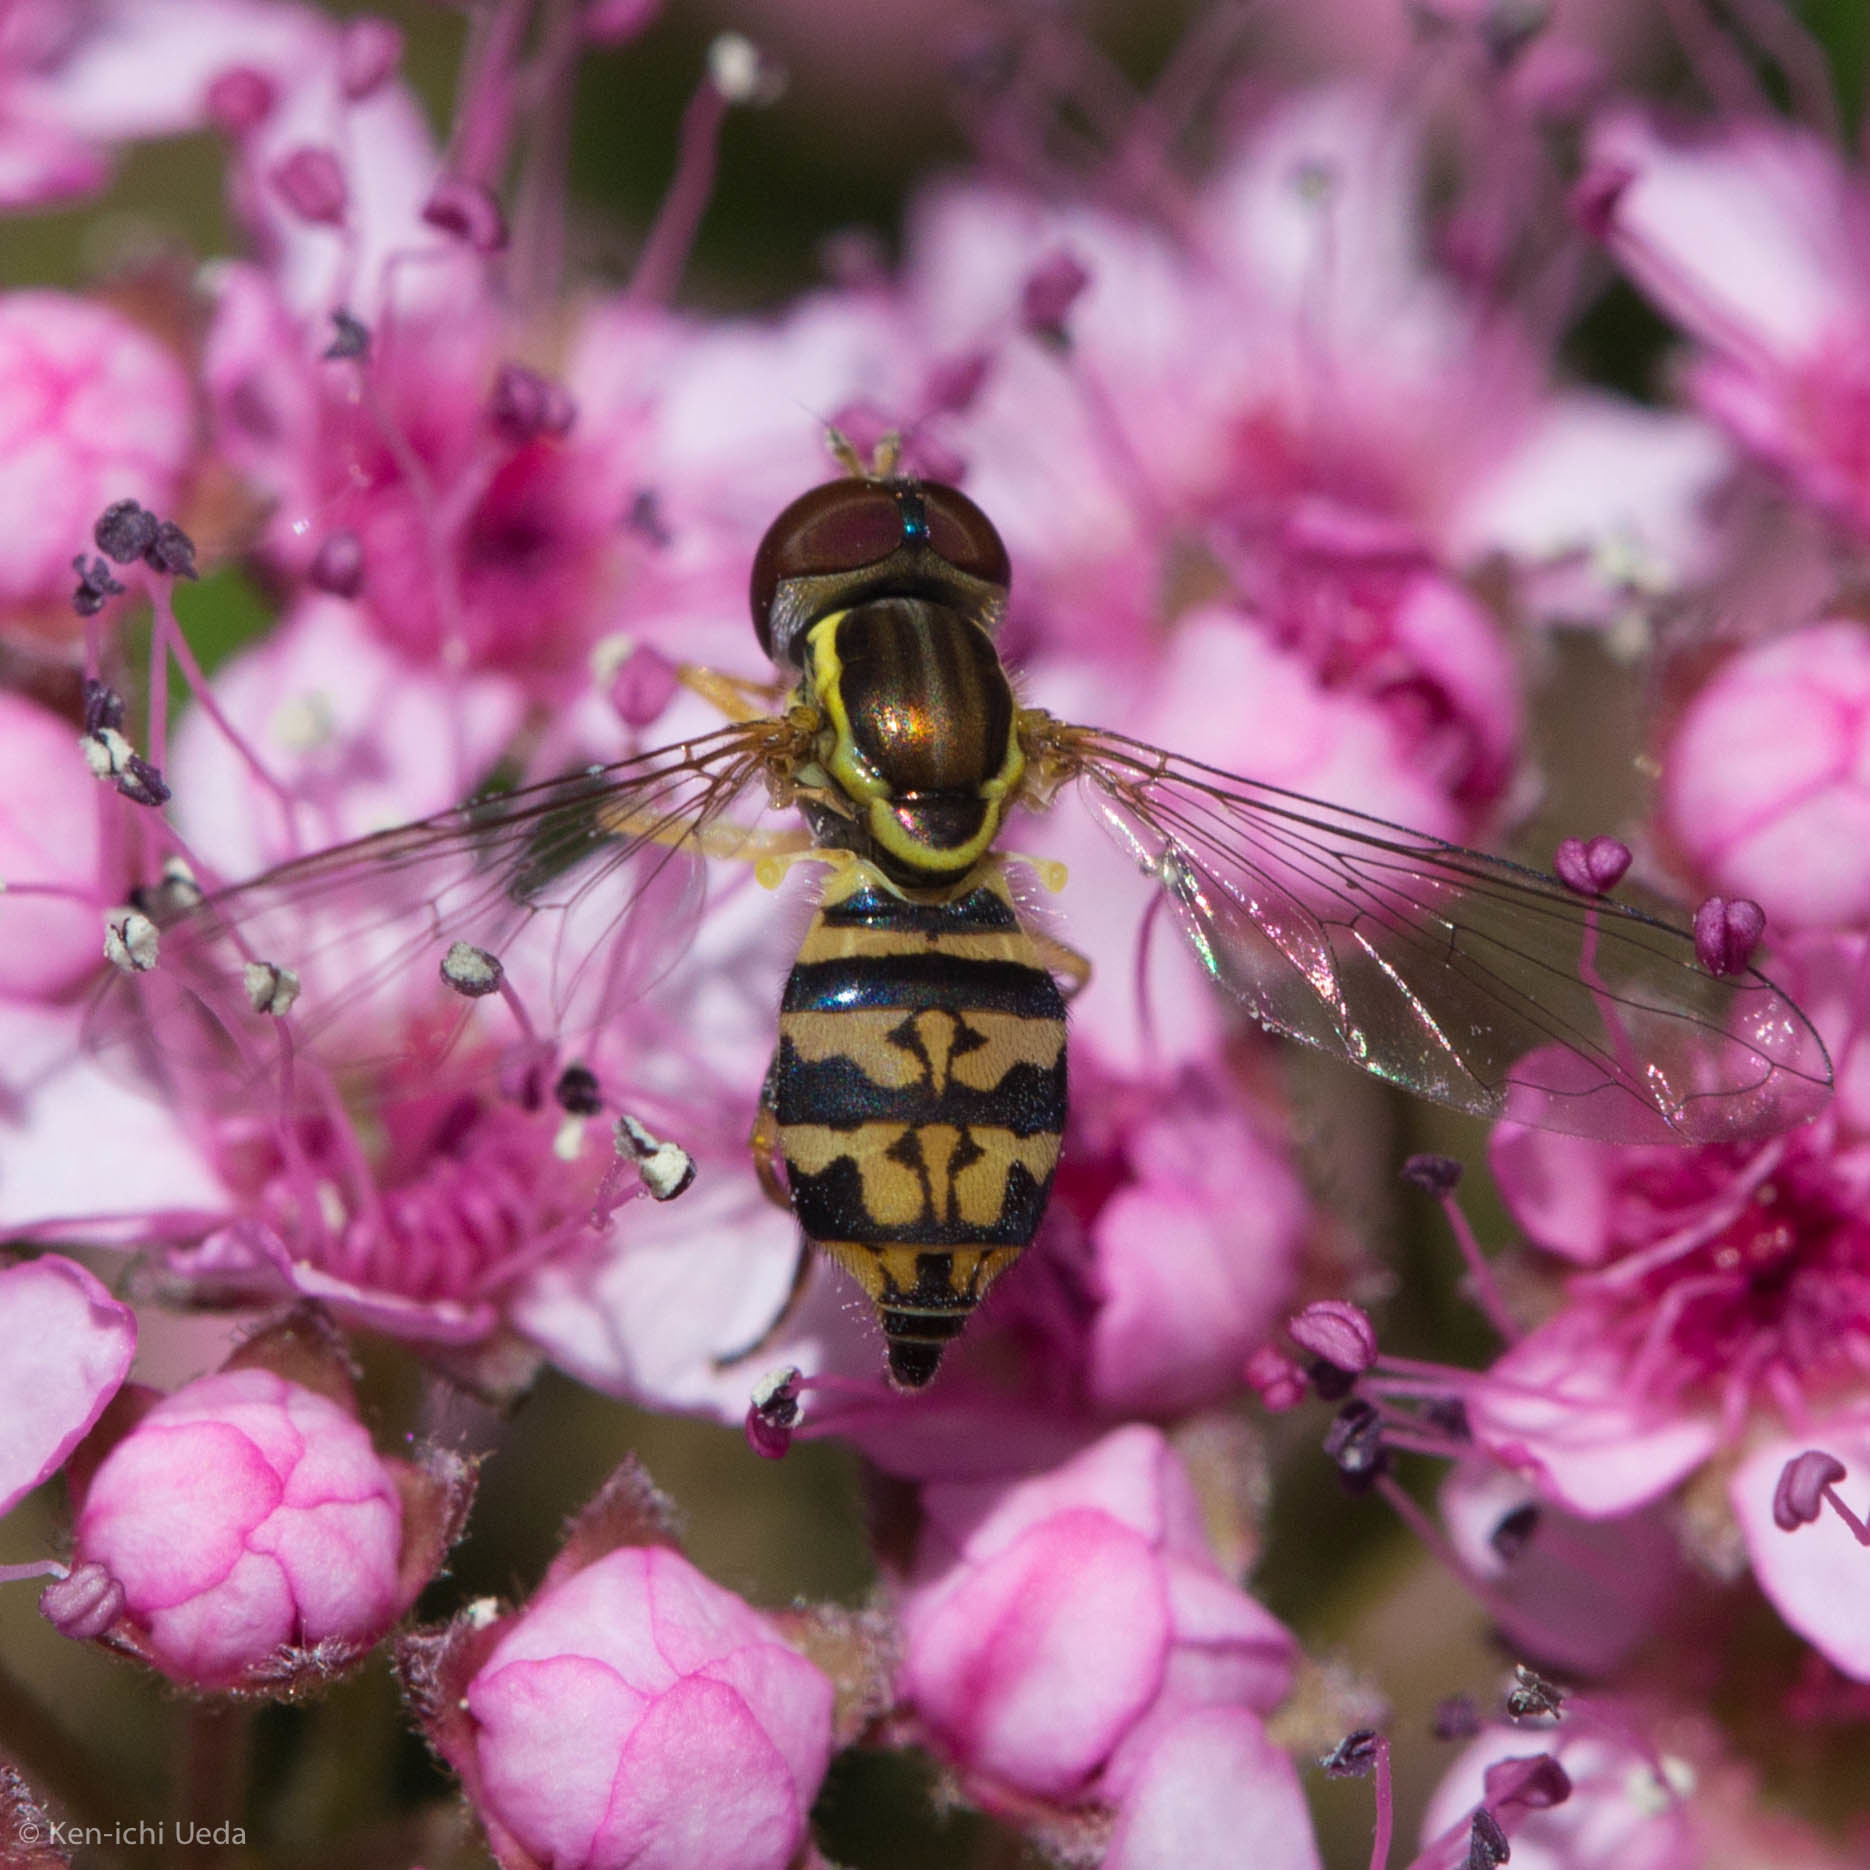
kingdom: Animalia
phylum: Arthropoda
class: Insecta
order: Diptera
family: Syrphidae
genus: Toxomerus
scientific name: Toxomerus geminatus
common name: Eastern calligrapher
